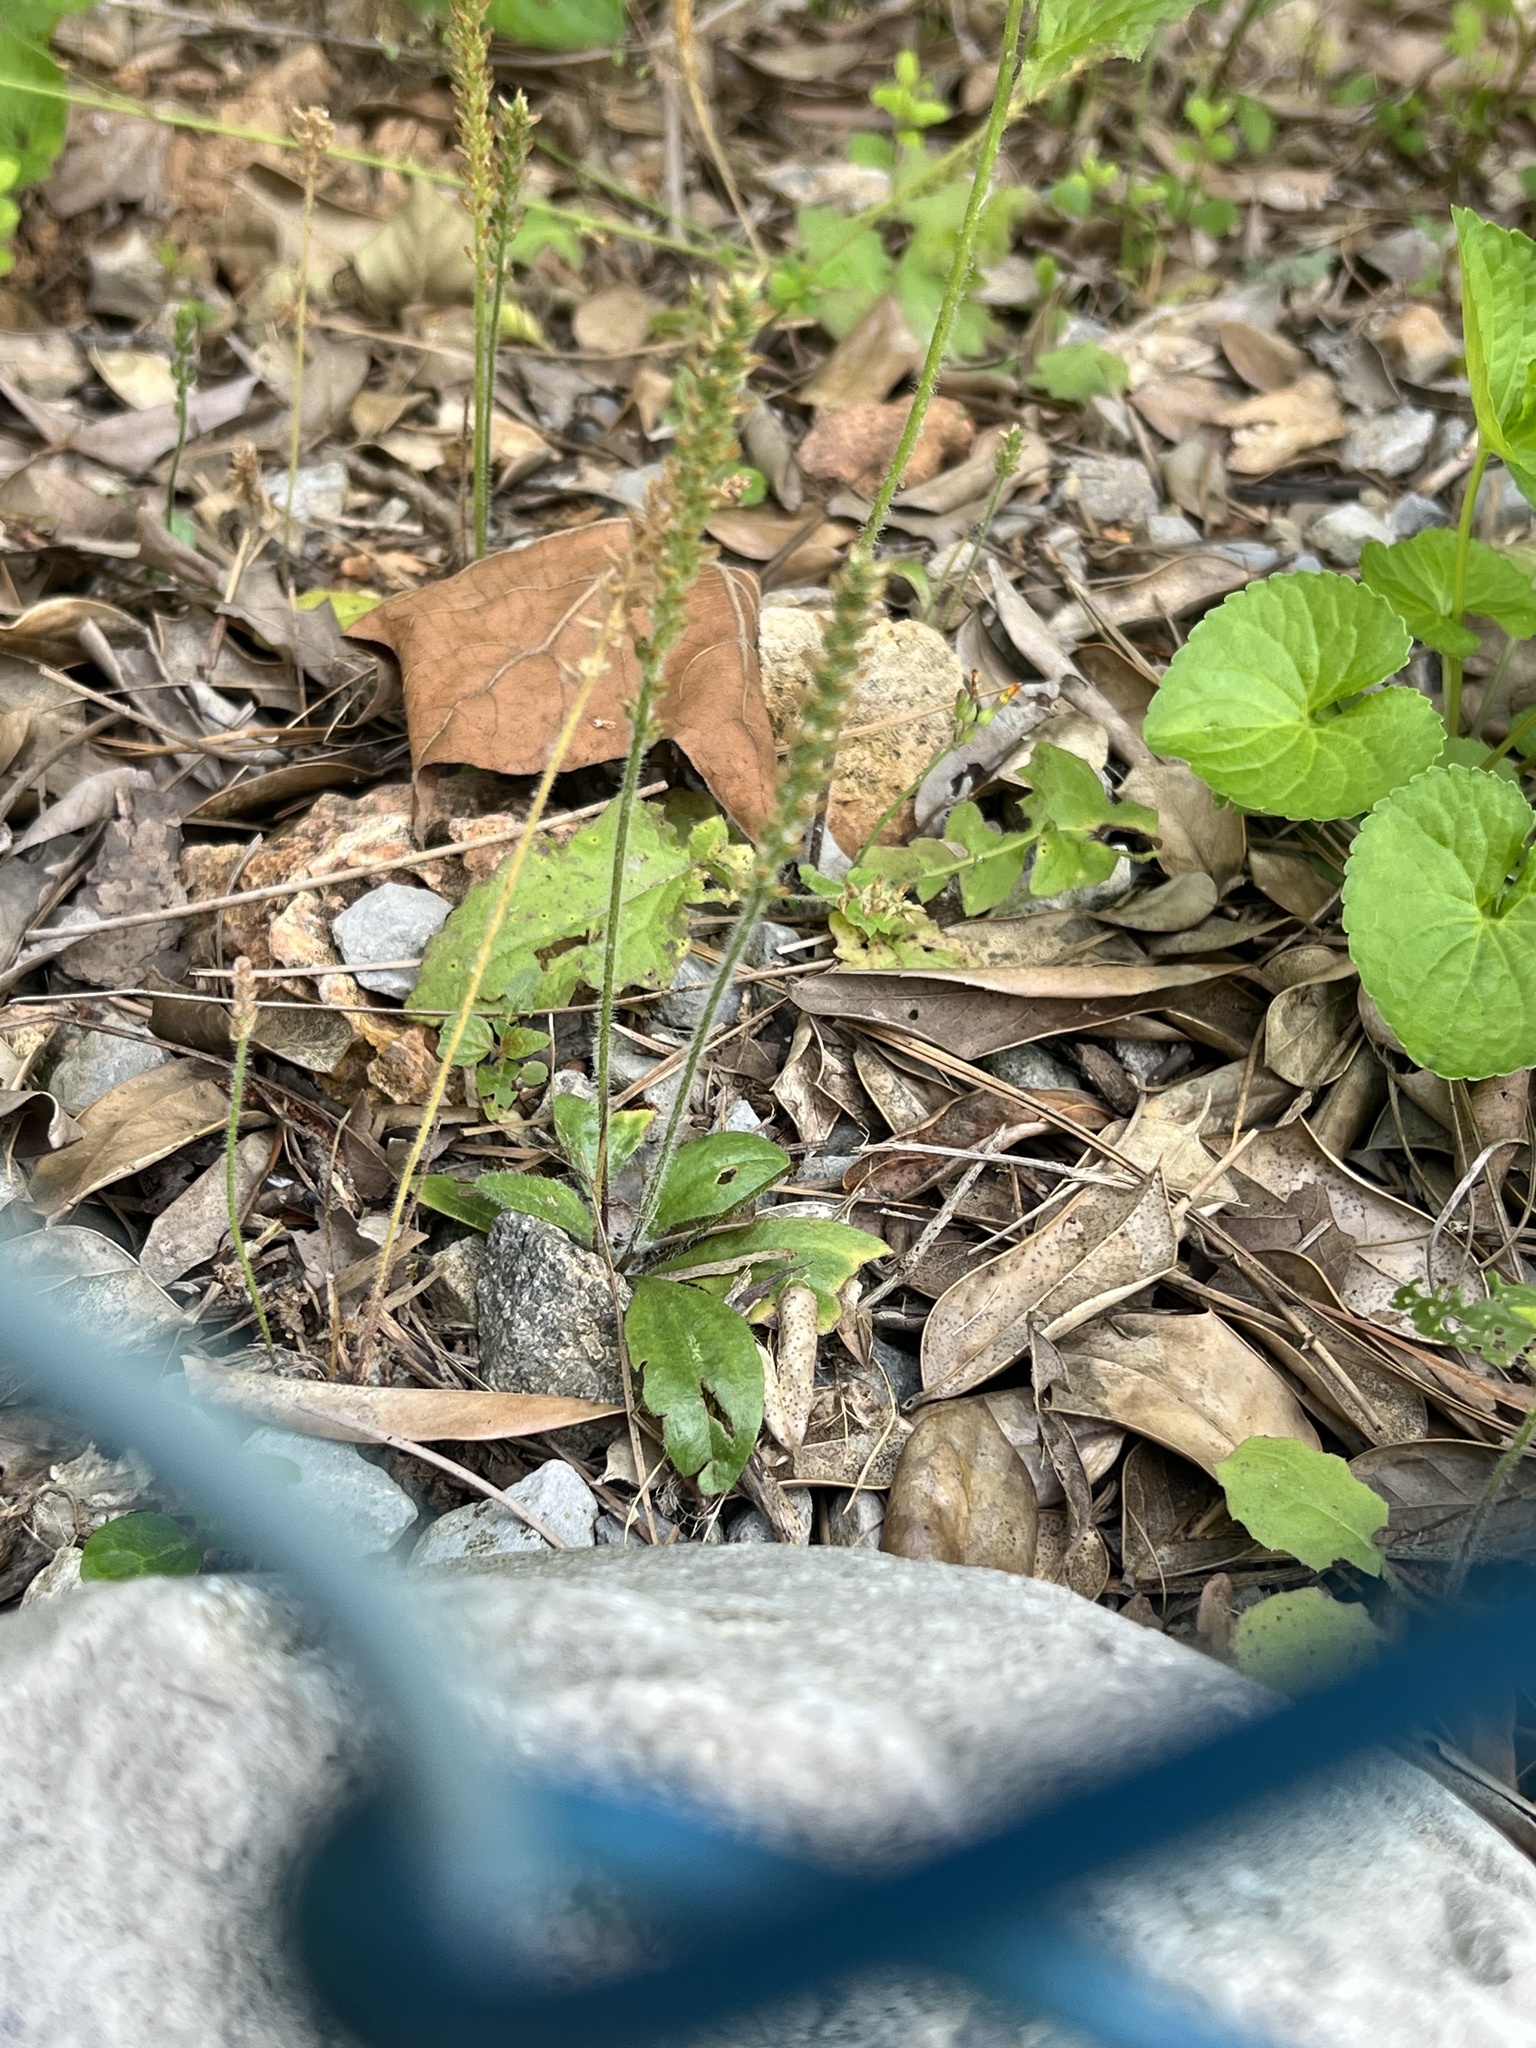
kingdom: Plantae
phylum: Tracheophyta
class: Magnoliopsida
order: Lamiales
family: Plantaginaceae
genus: Plantago
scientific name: Plantago virginica
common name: Hoary plantain
